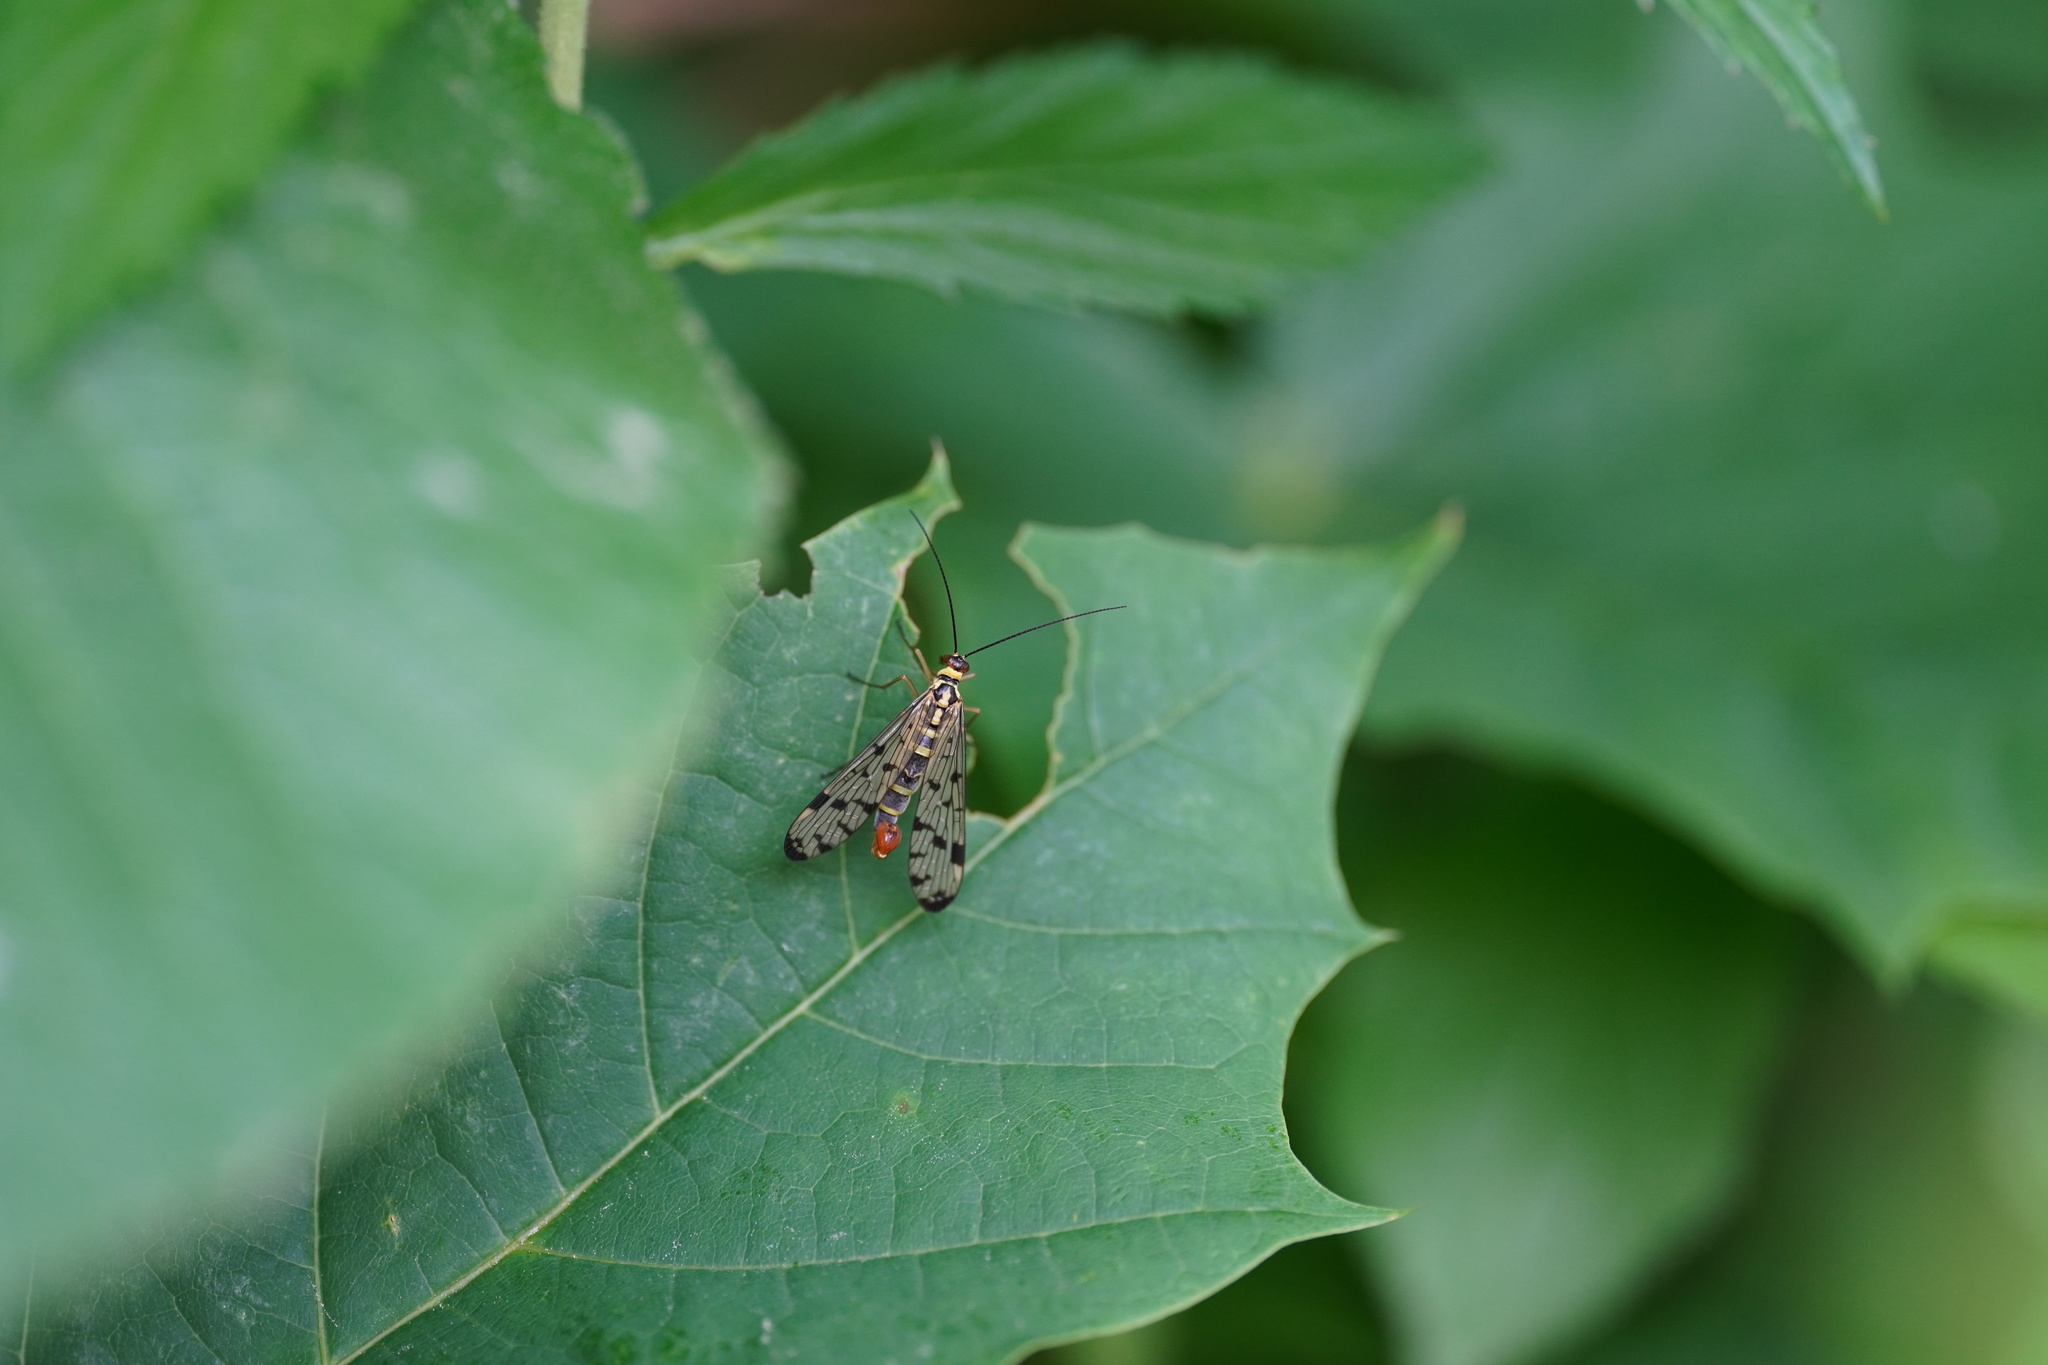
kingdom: Animalia
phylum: Arthropoda
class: Insecta
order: Mecoptera
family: Panorpidae
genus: Panorpa
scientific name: Panorpa germanica
